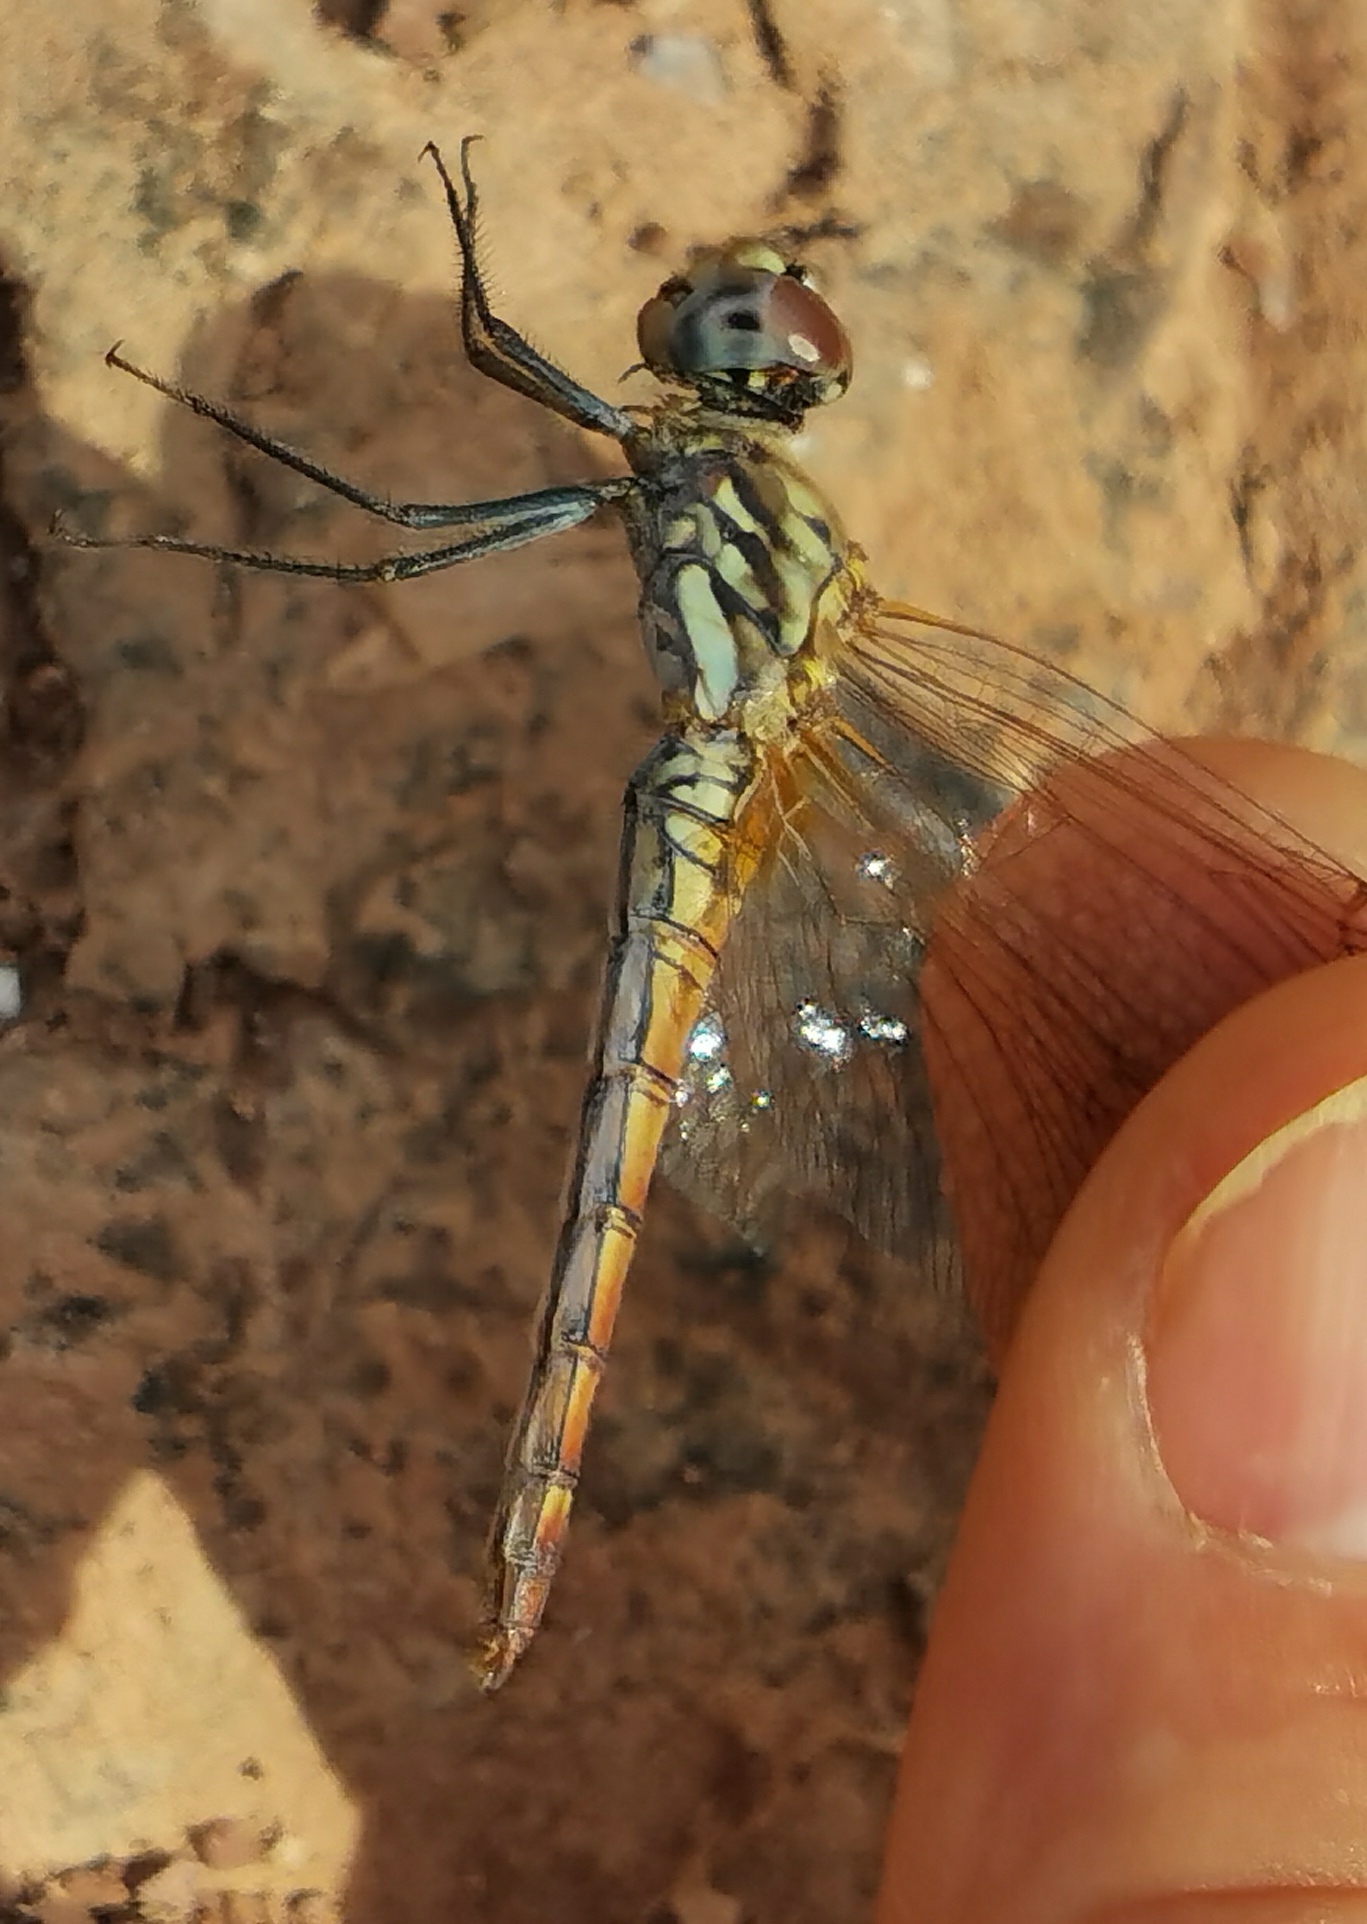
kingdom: Animalia
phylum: Arthropoda
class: Insecta
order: Odonata
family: Libellulidae
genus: Trithemis
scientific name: Trithemis annulata
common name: Violet dropwing
